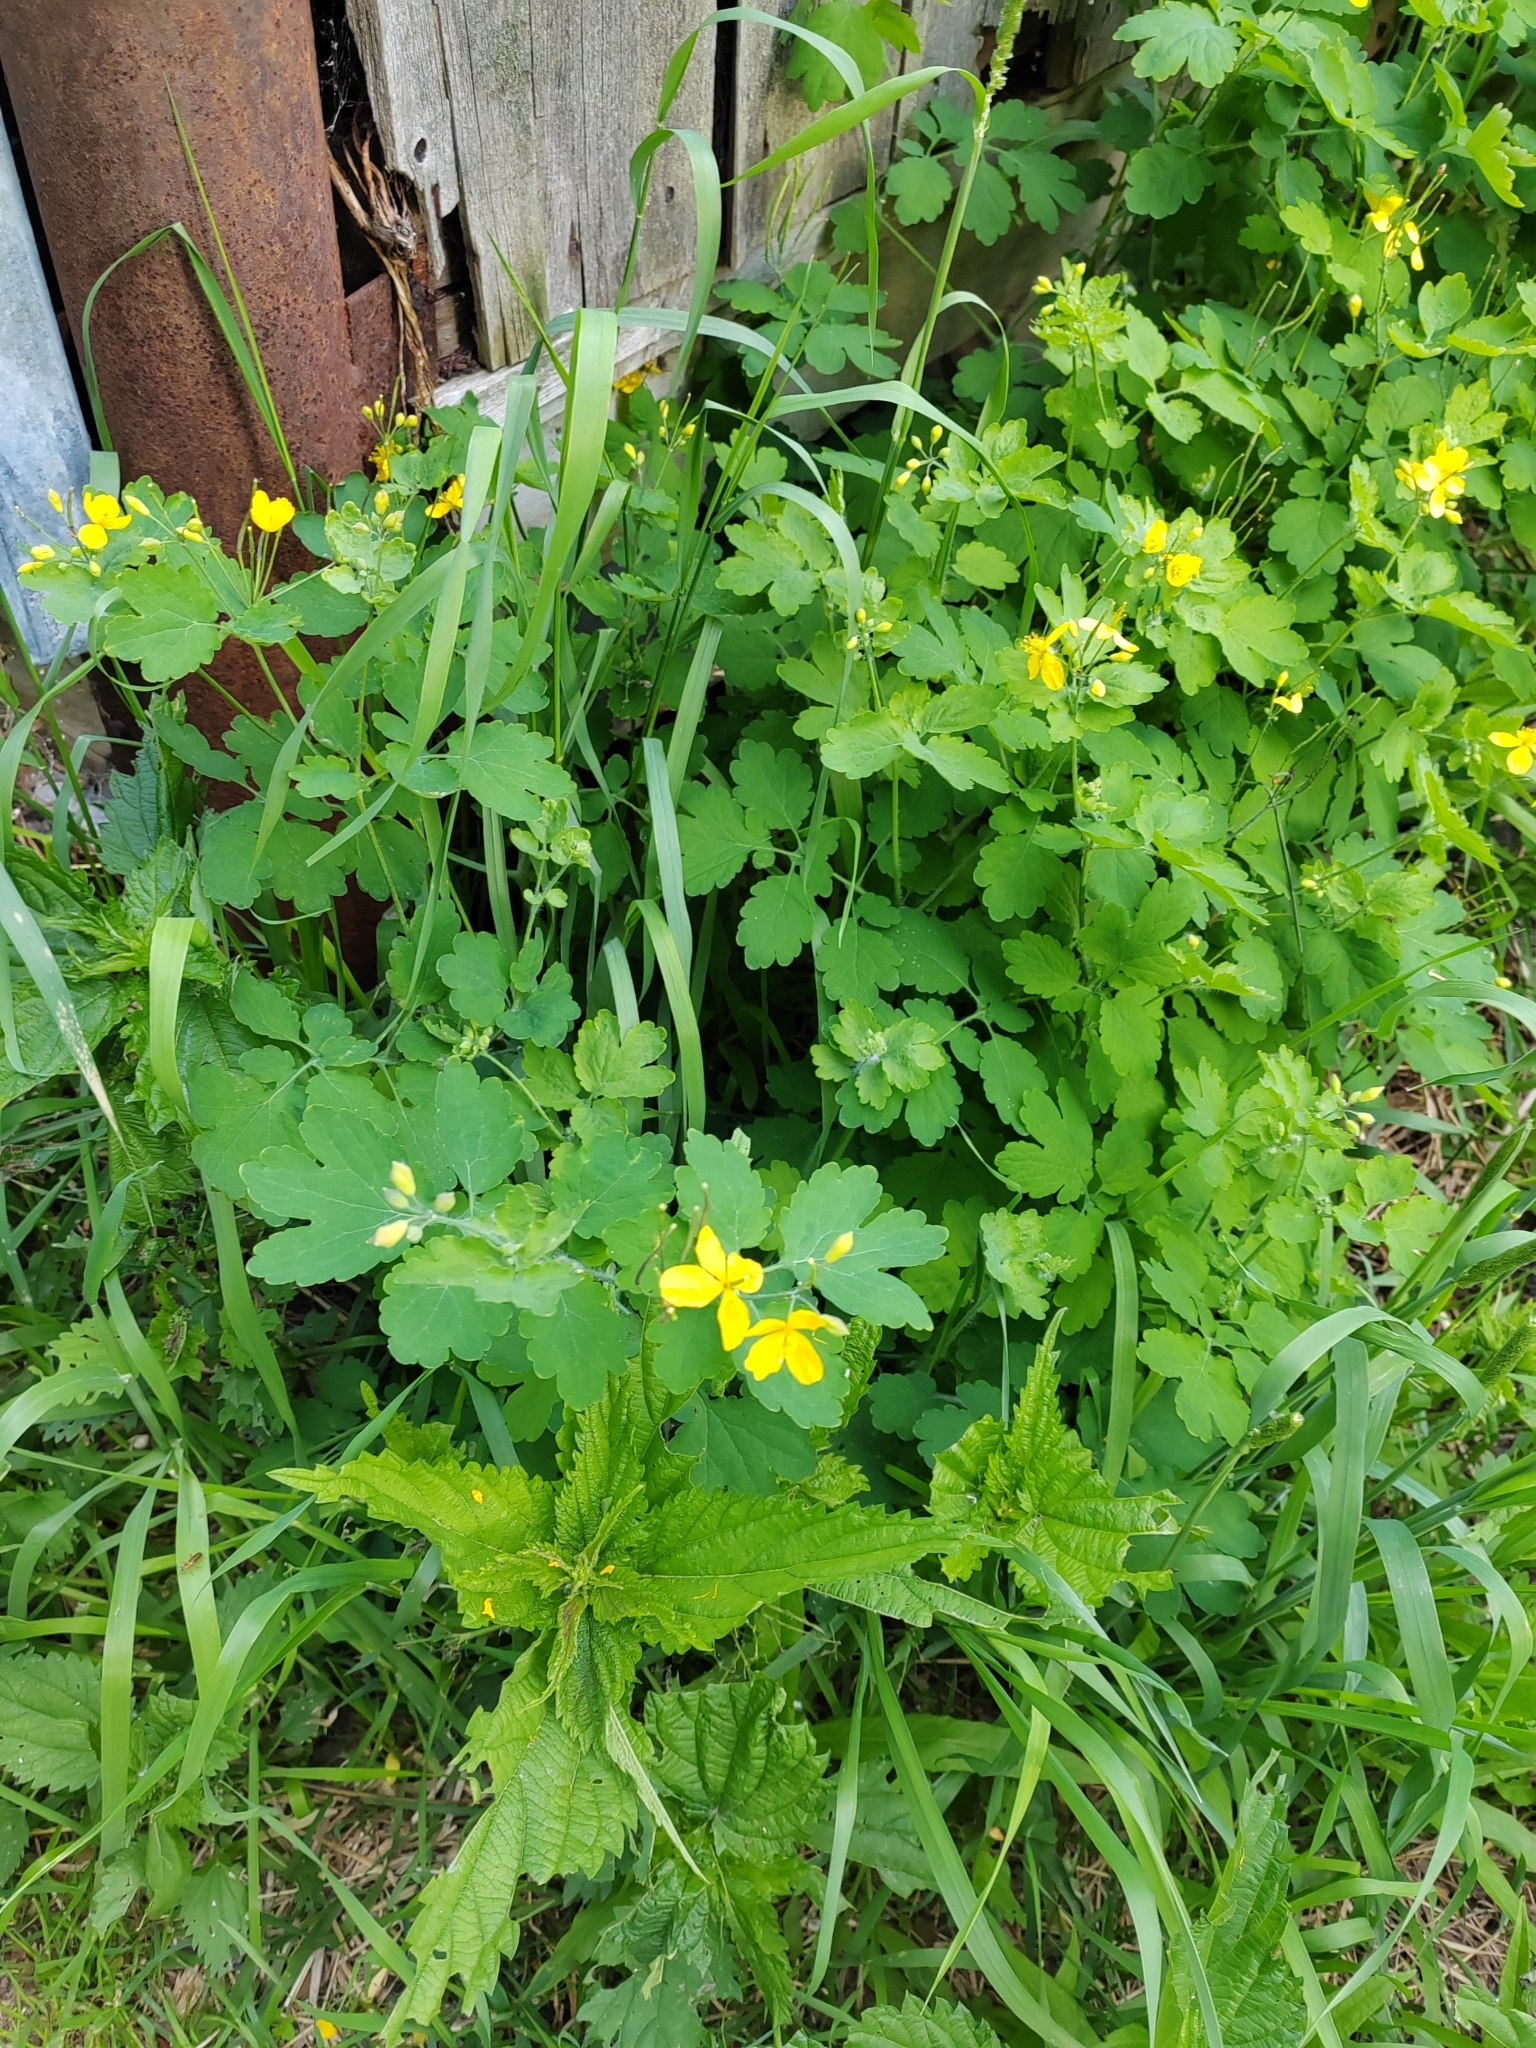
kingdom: Plantae
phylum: Tracheophyta
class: Magnoliopsida
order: Ranunculales
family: Papaveraceae
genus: Chelidonium
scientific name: Chelidonium majus
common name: Greater celandine
